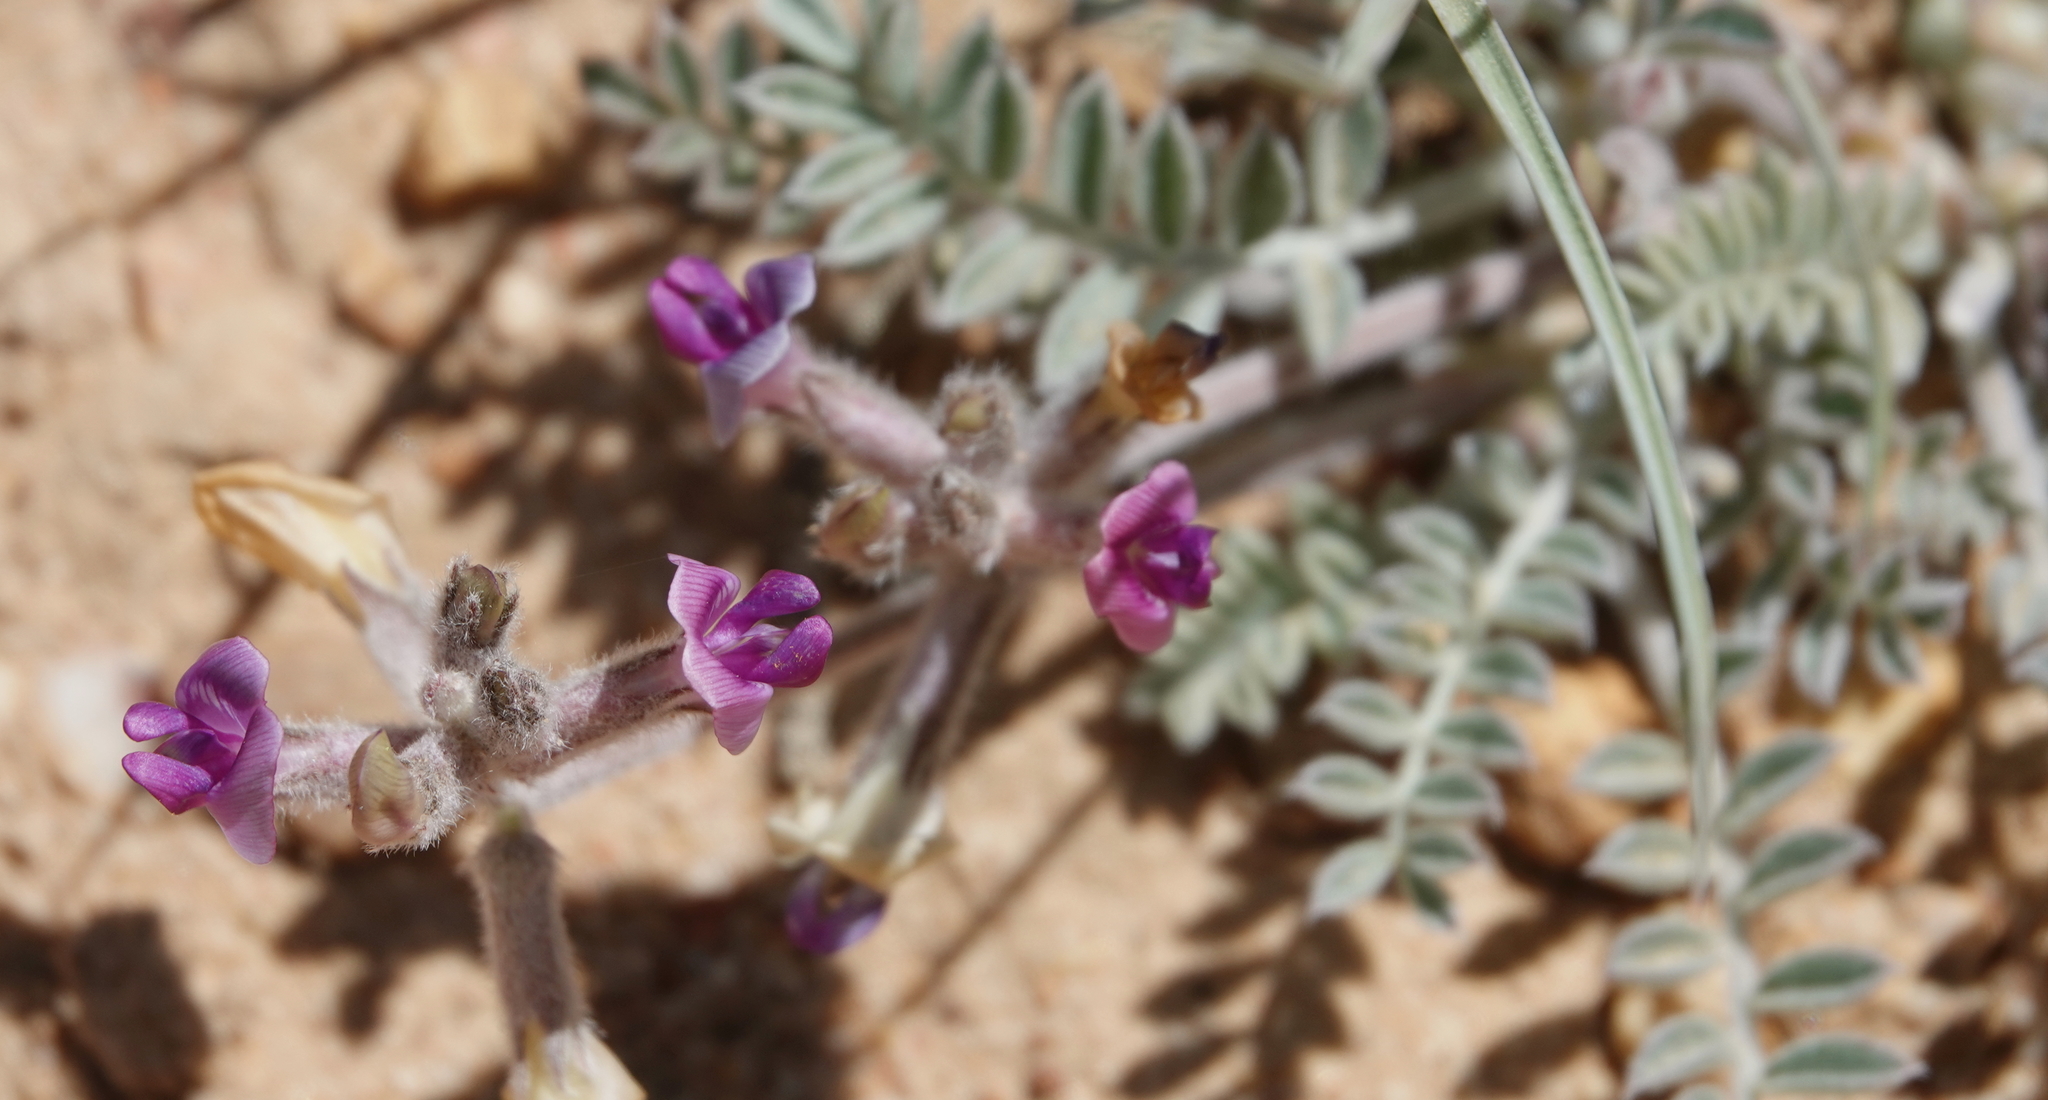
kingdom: Plantae
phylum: Tracheophyta
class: Magnoliopsida
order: Fabales
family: Fabaceae
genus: Astragalus
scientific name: Astragalus leucolobus
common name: Big bear valley woollypod
